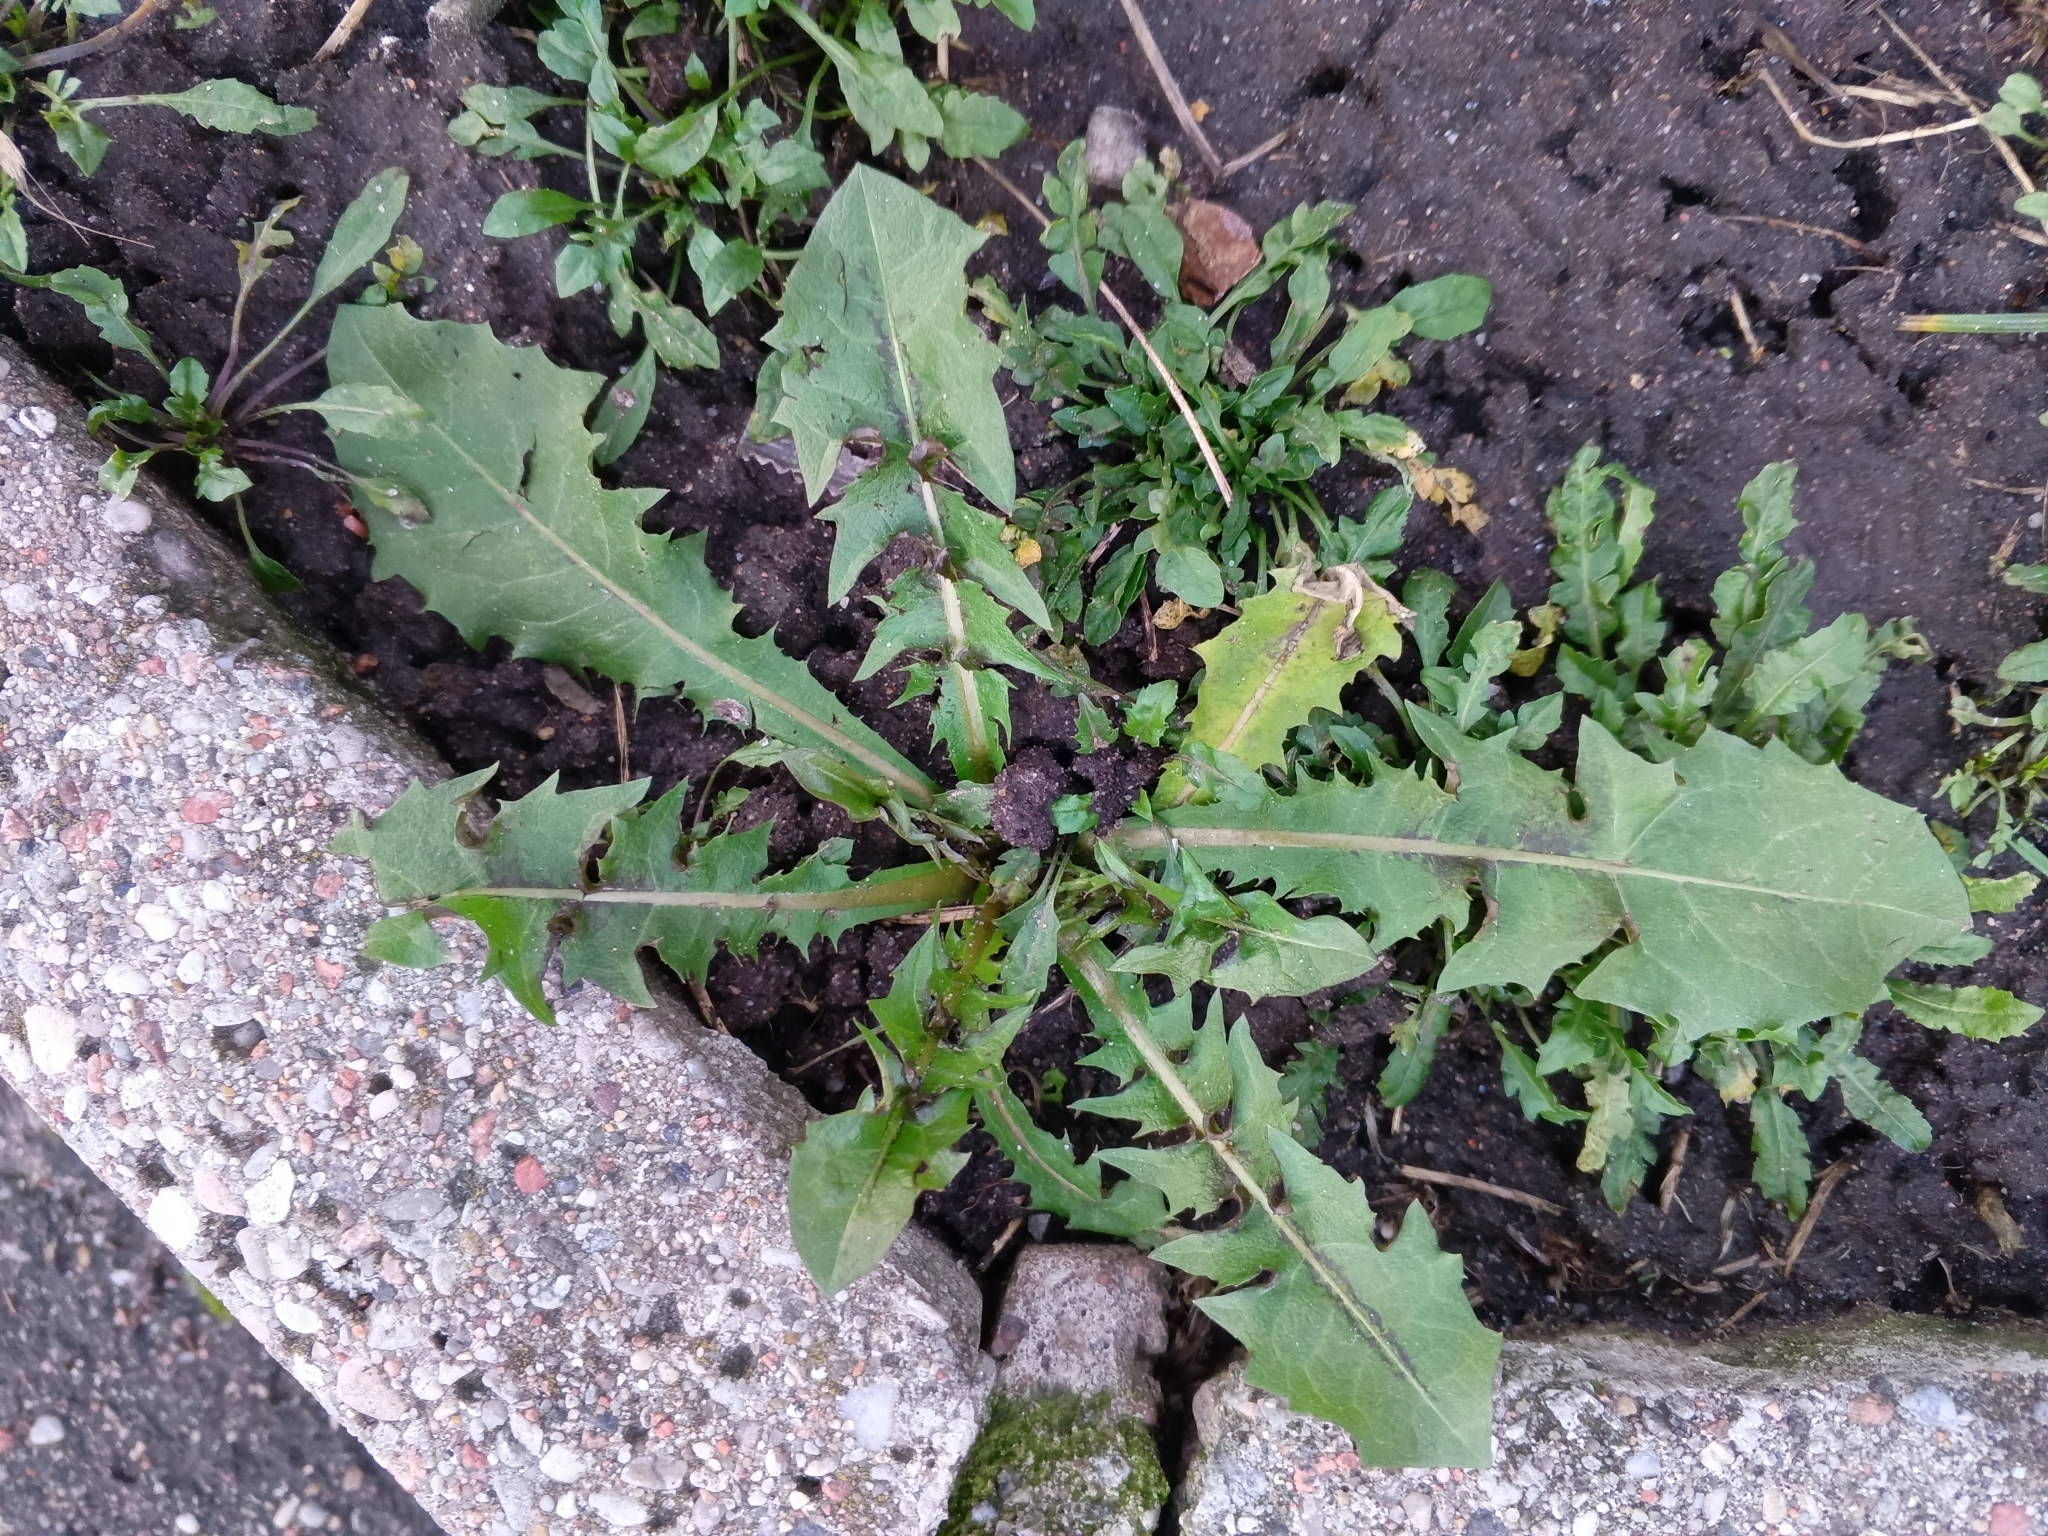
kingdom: Plantae
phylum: Tracheophyta
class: Magnoliopsida
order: Asterales
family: Asteraceae
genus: Taraxacum
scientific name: Taraxacum officinale
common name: Common dandelion
